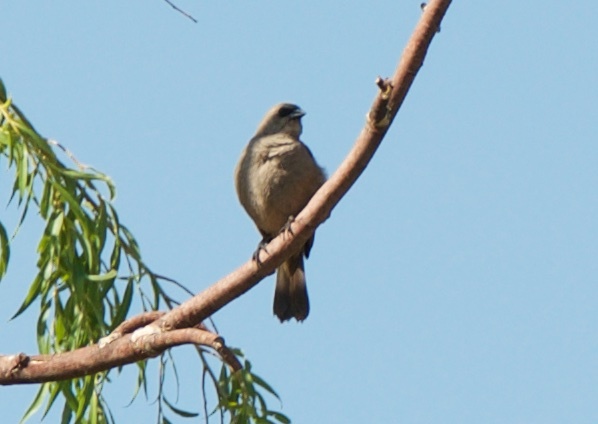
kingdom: Animalia
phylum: Chordata
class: Aves
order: Passeriformes
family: Icteridae
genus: Agelaioides
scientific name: Agelaioides badius
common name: Baywing
